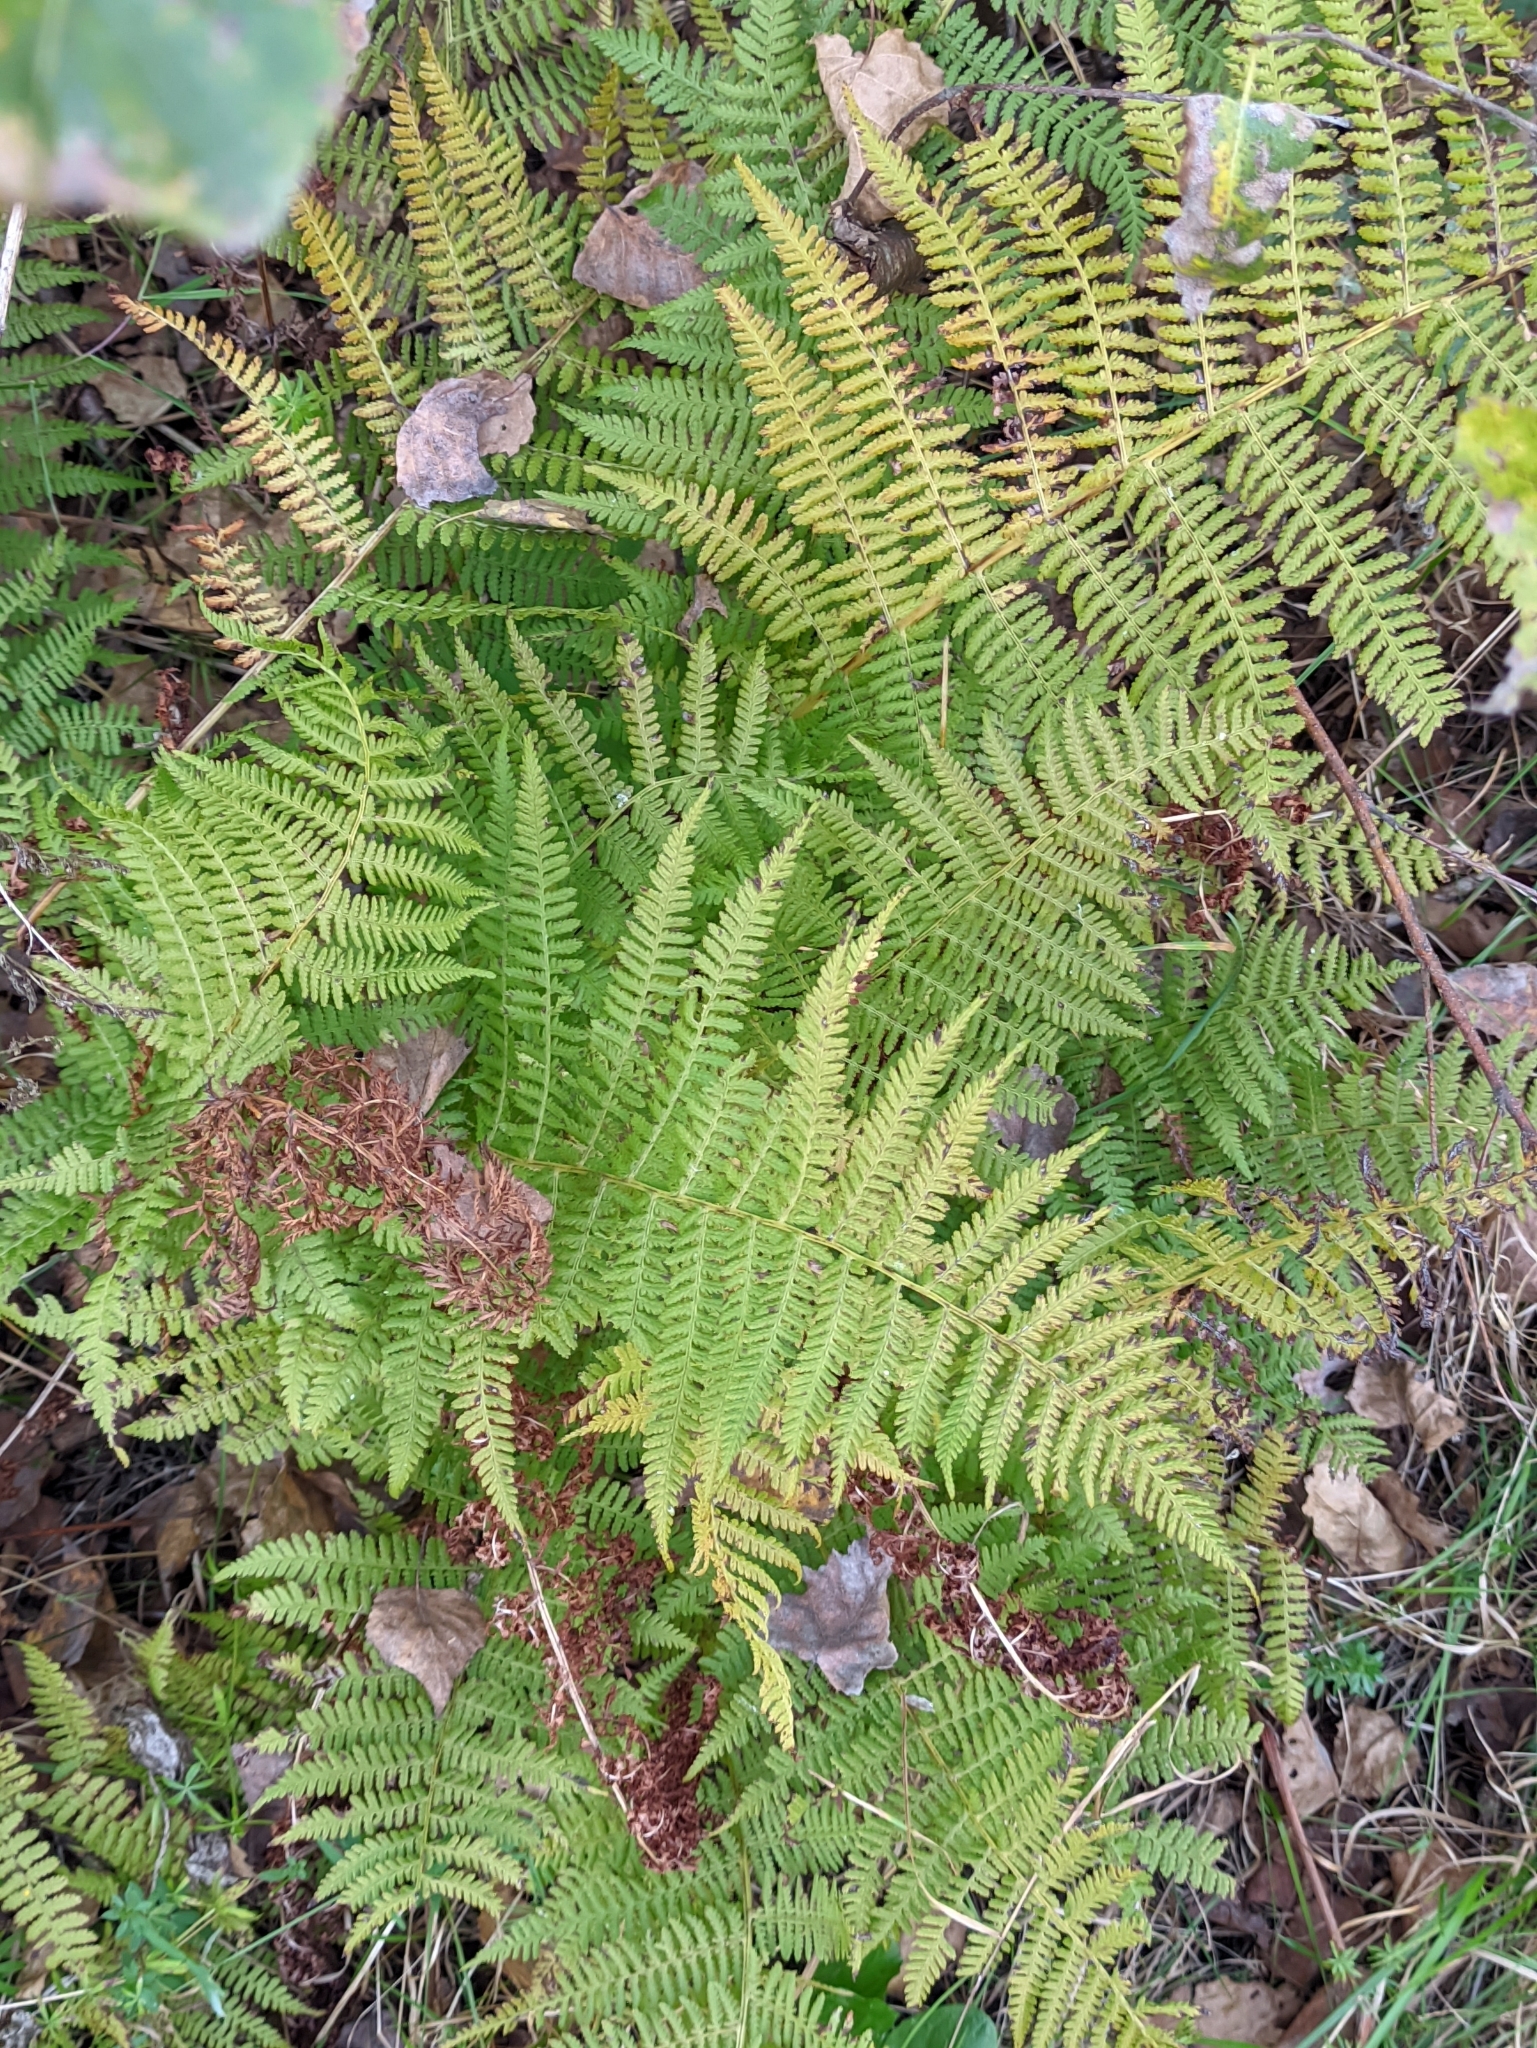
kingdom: Plantae
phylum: Tracheophyta
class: Polypodiopsida
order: Polypodiales
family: Athyriaceae
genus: Athyrium
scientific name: Athyrium filix-femina
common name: Lady fern
